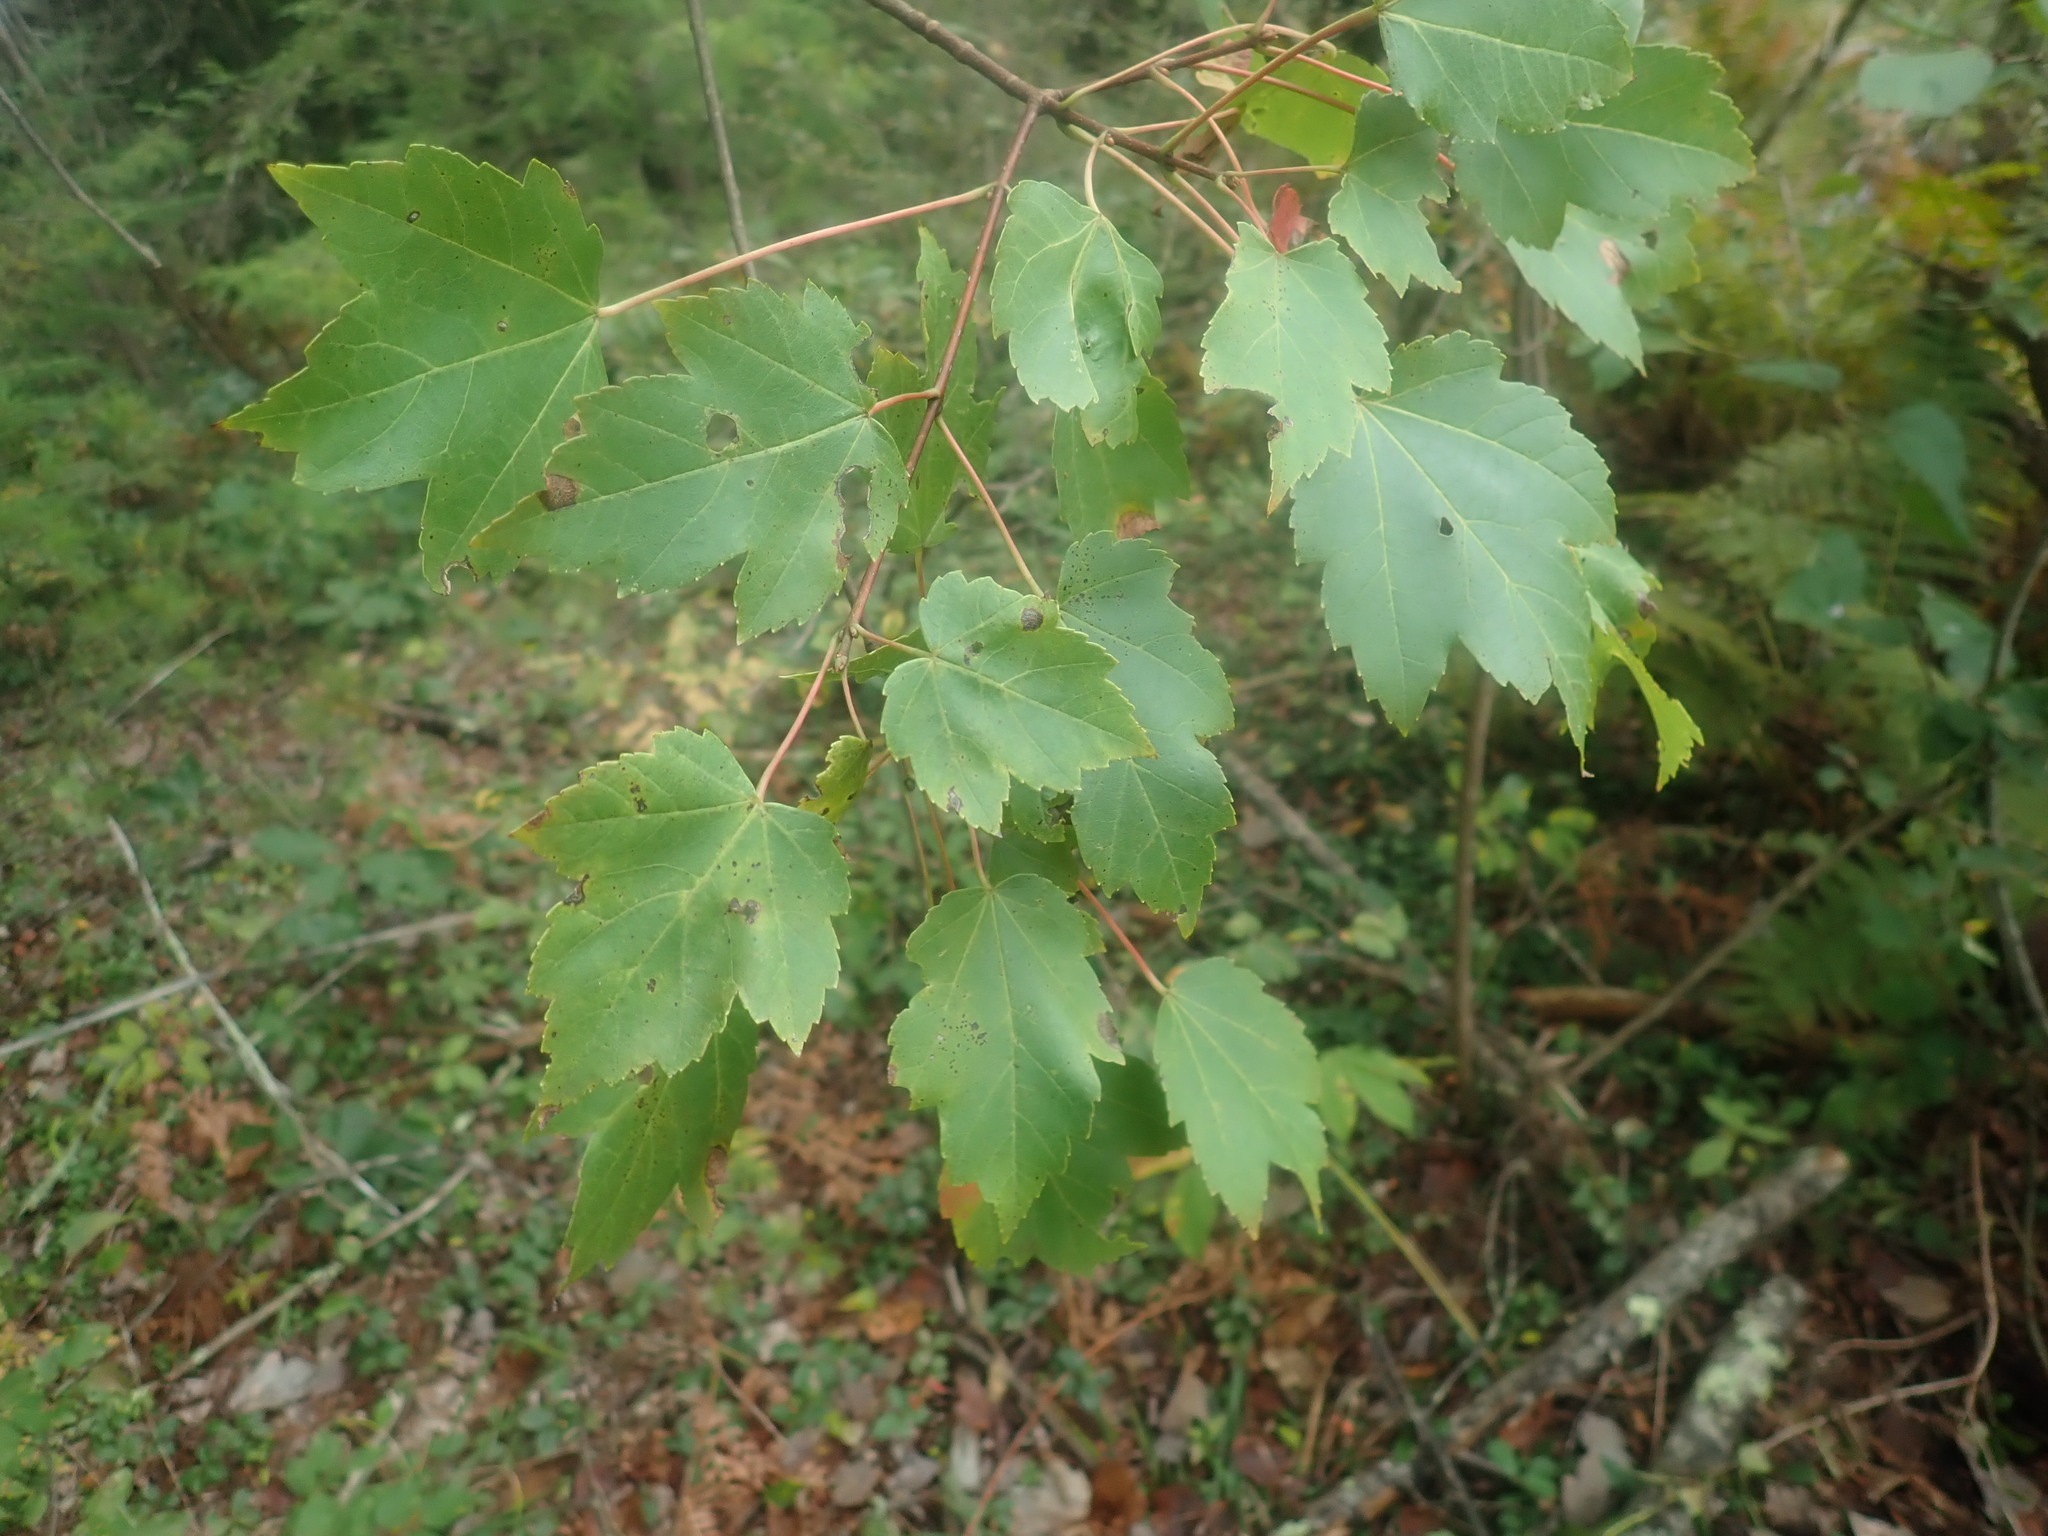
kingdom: Plantae
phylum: Tracheophyta
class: Magnoliopsida
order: Sapindales
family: Sapindaceae
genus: Acer
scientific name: Acer rubrum
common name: Red maple
